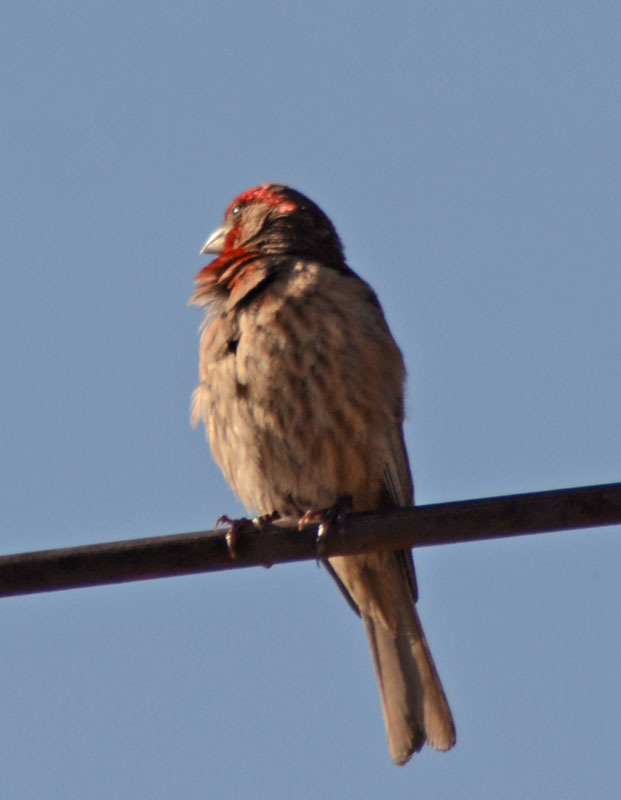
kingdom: Animalia
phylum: Chordata
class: Aves
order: Passeriformes
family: Fringillidae
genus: Haemorhous
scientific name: Haemorhous mexicanus
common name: House finch
